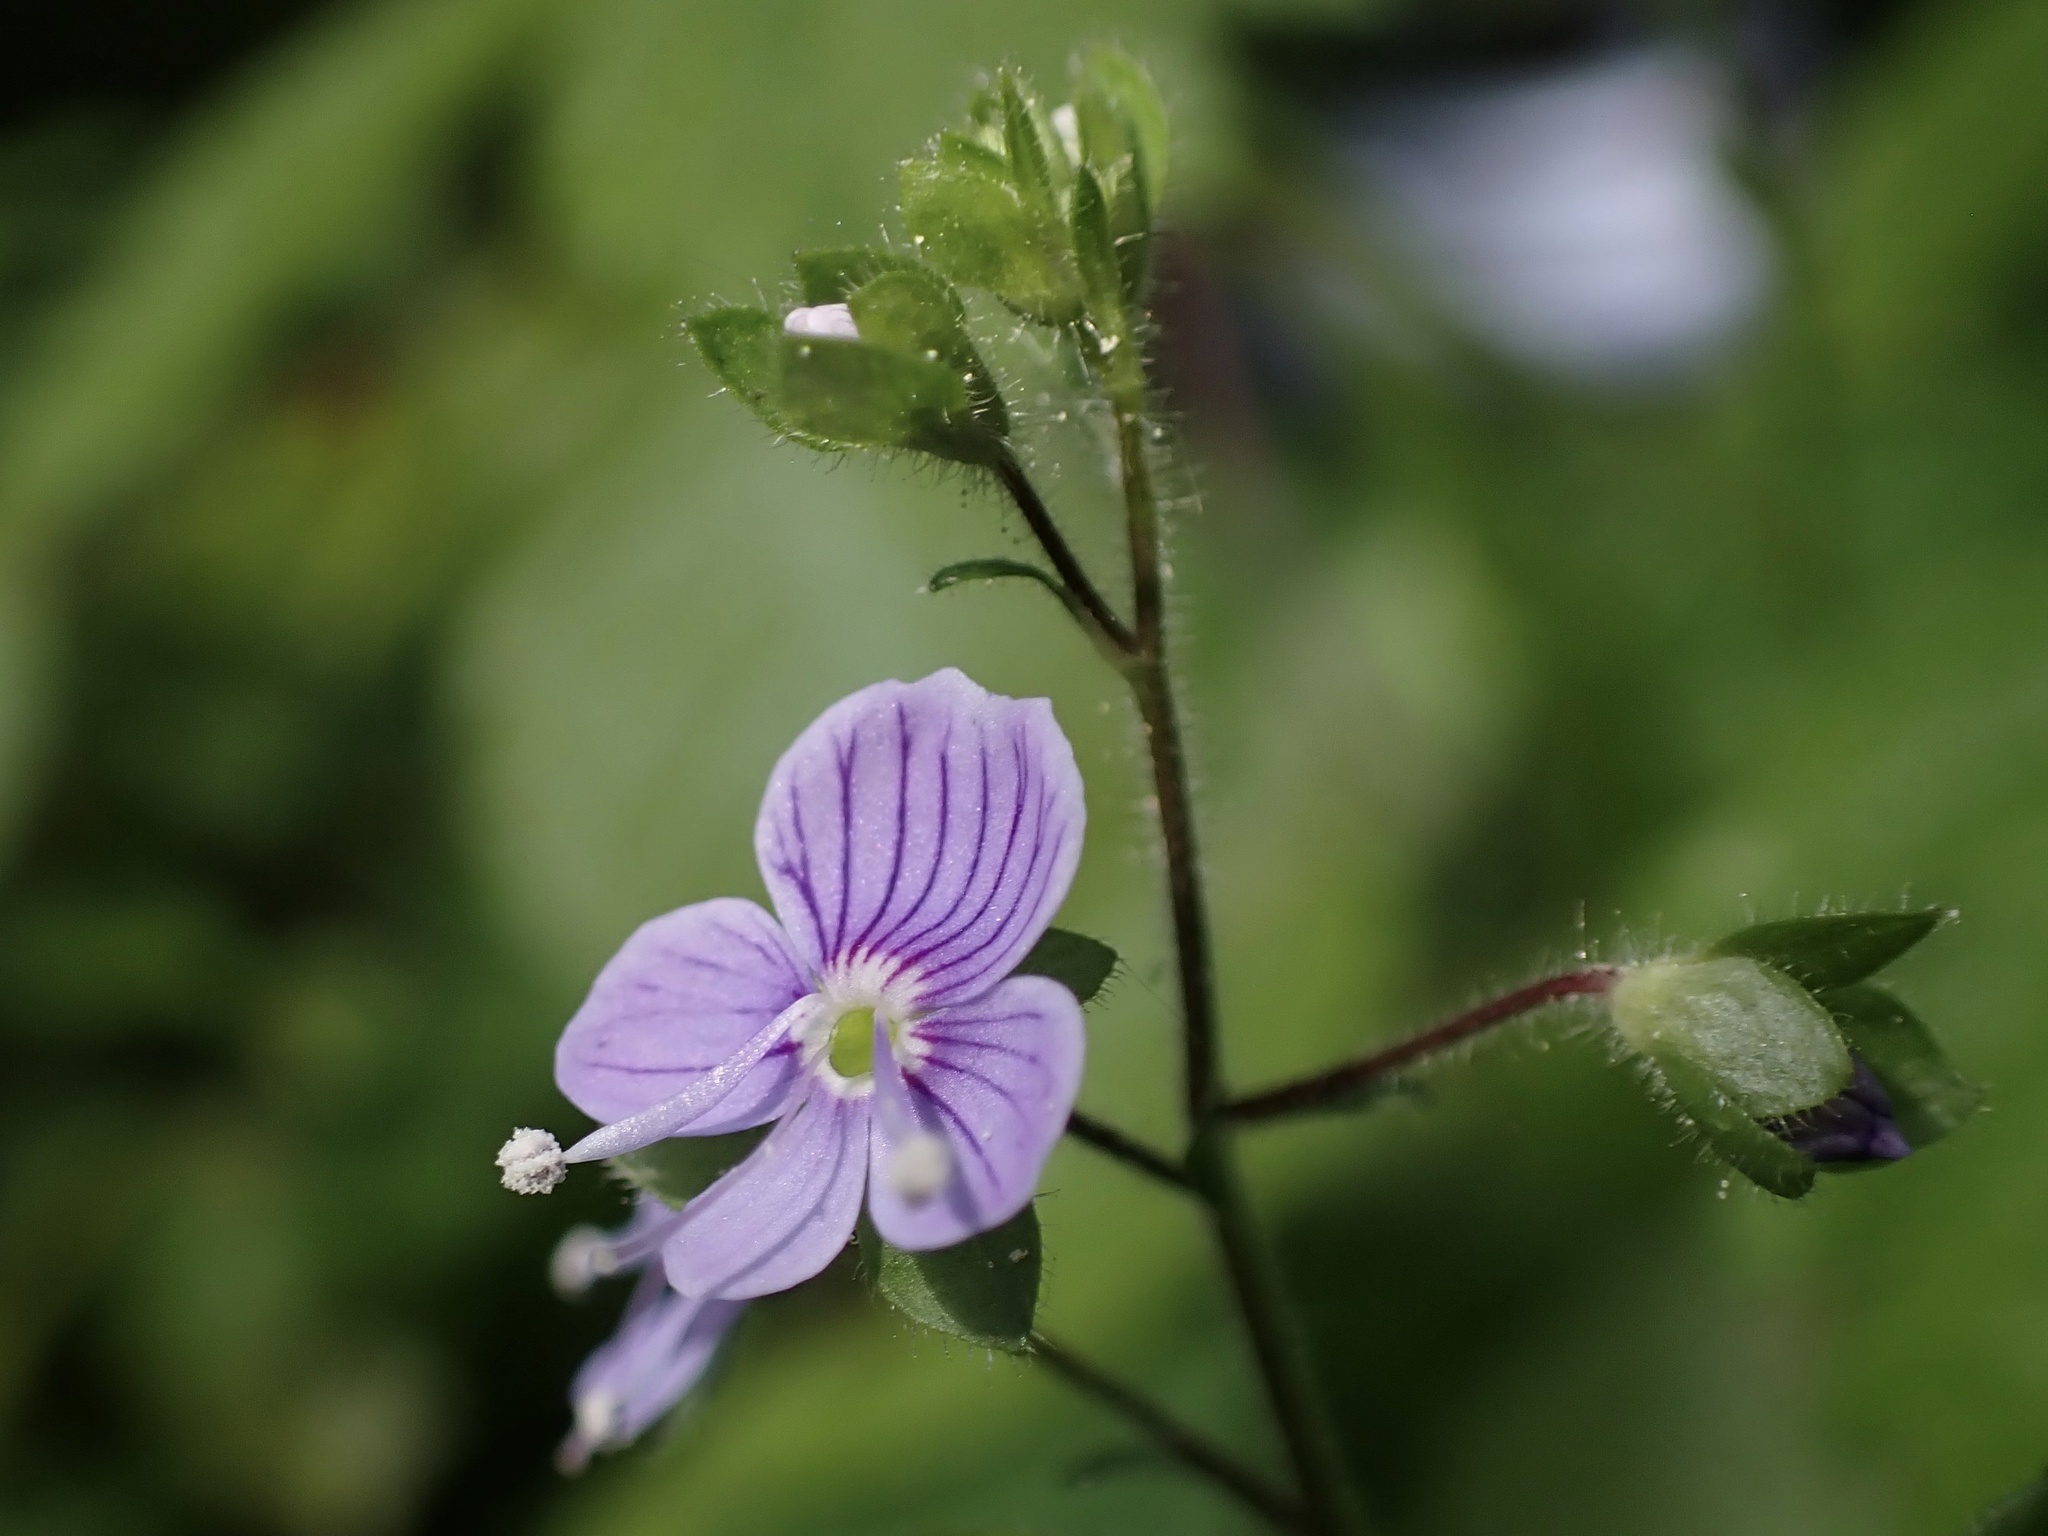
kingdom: Plantae
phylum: Tracheophyta
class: Magnoliopsida
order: Lamiales
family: Plantaginaceae
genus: Veronica
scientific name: Veronica montana
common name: Wood speedwell
